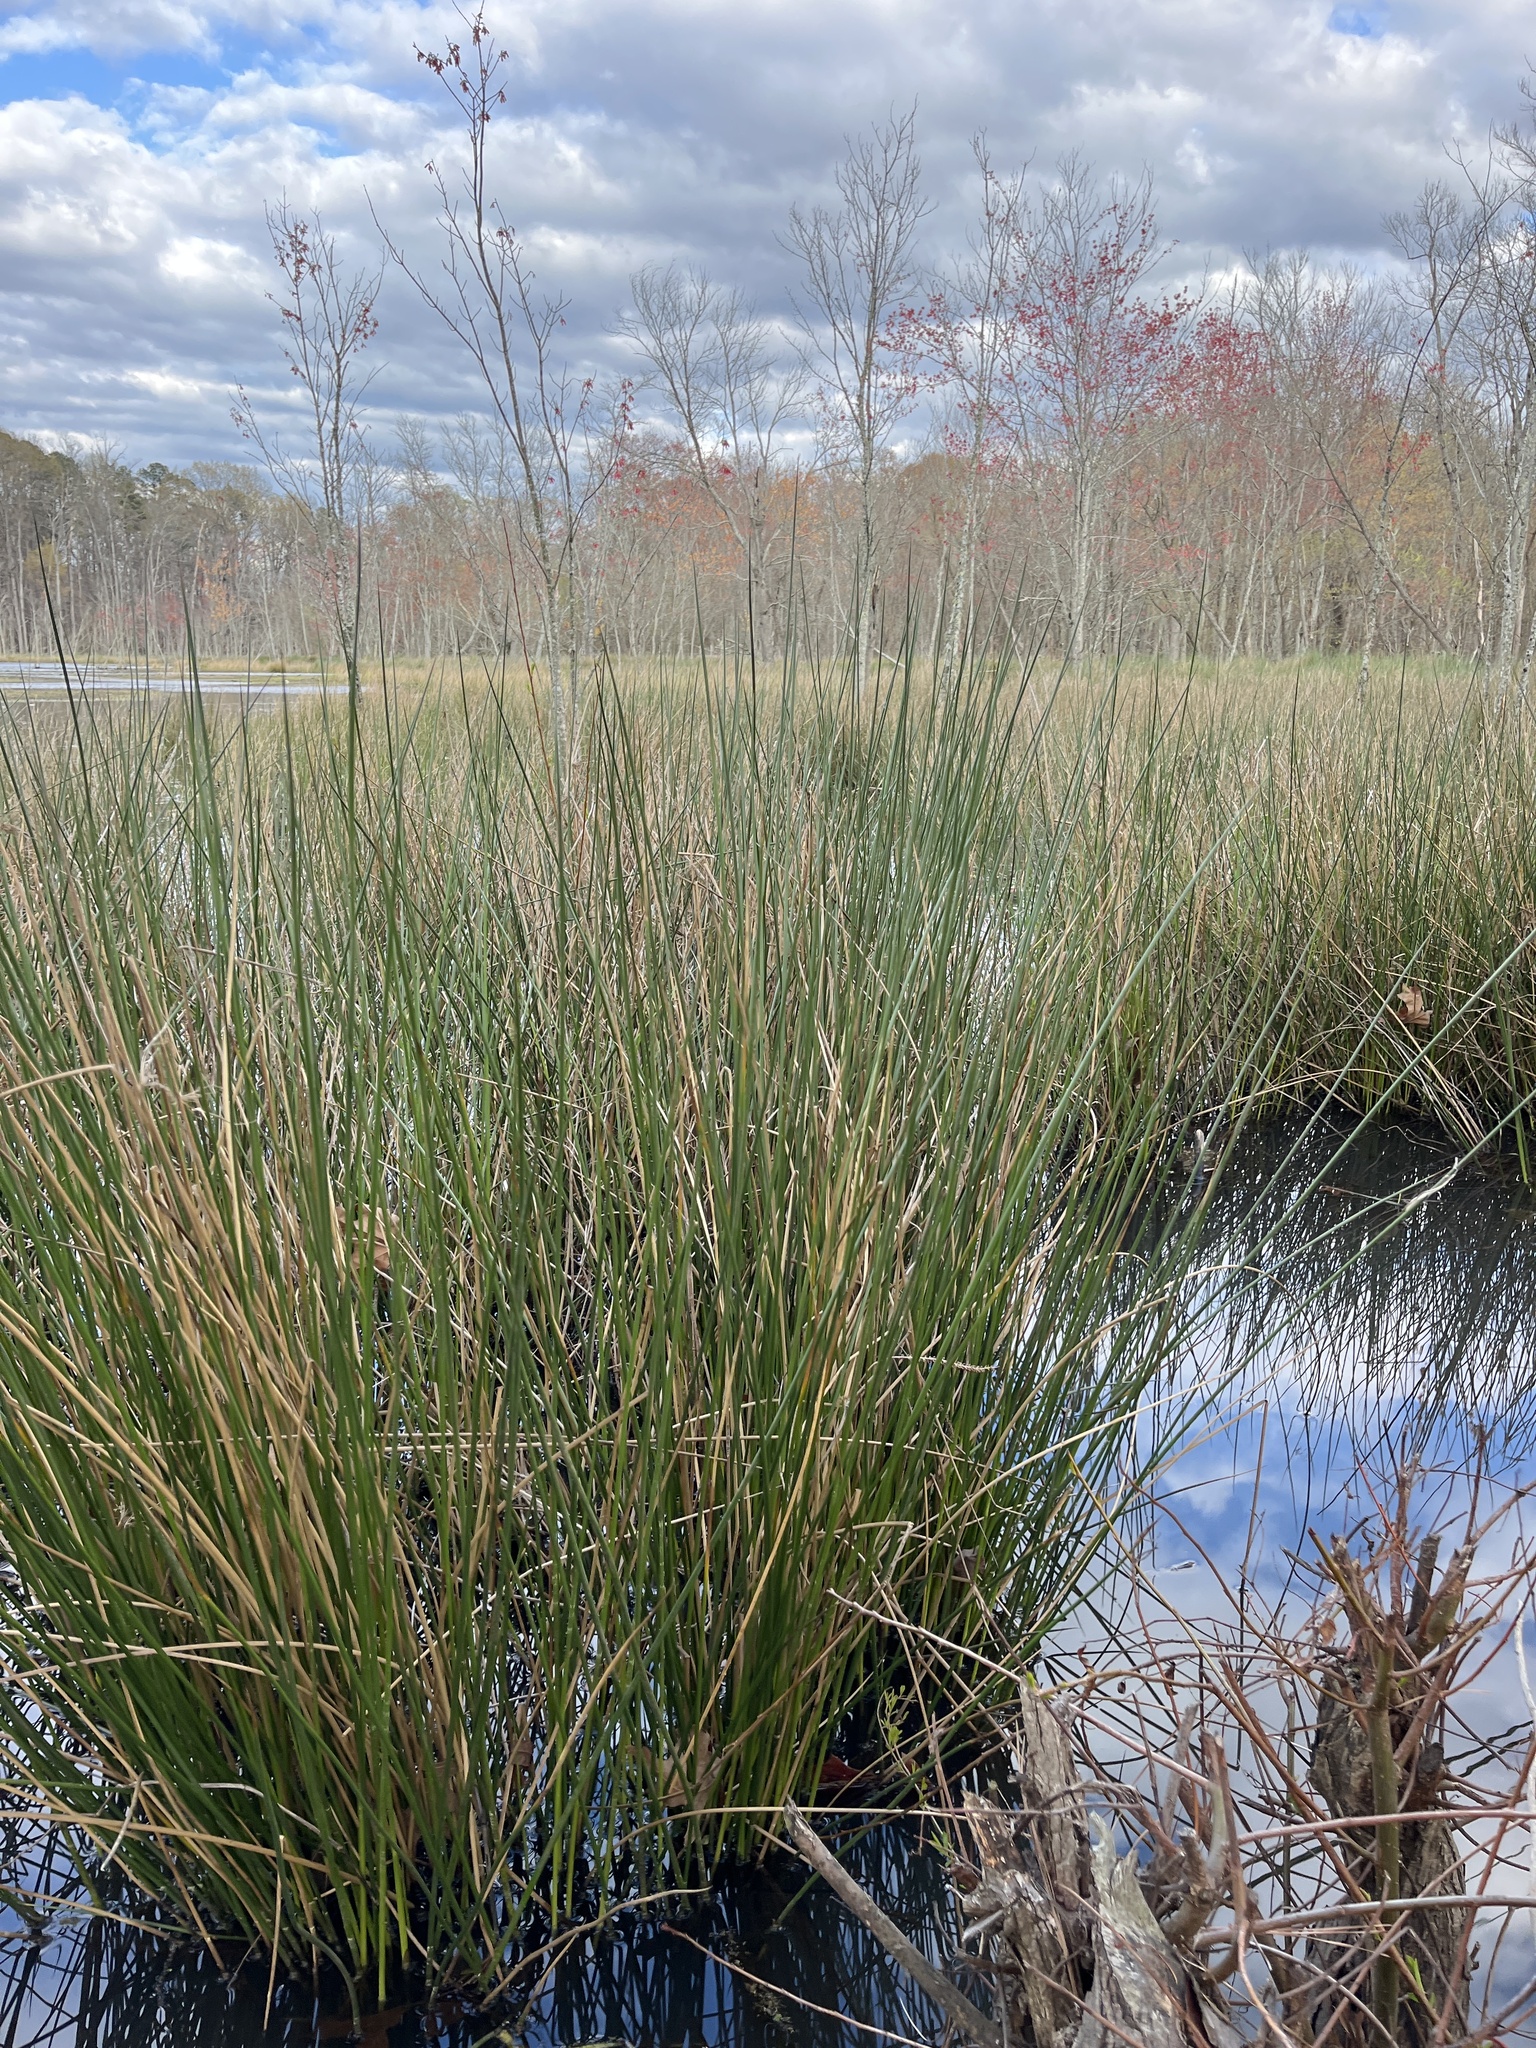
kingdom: Plantae
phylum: Tracheophyta
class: Liliopsida
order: Poales
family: Juncaceae
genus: Juncus
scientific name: Juncus effusus
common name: Soft rush
